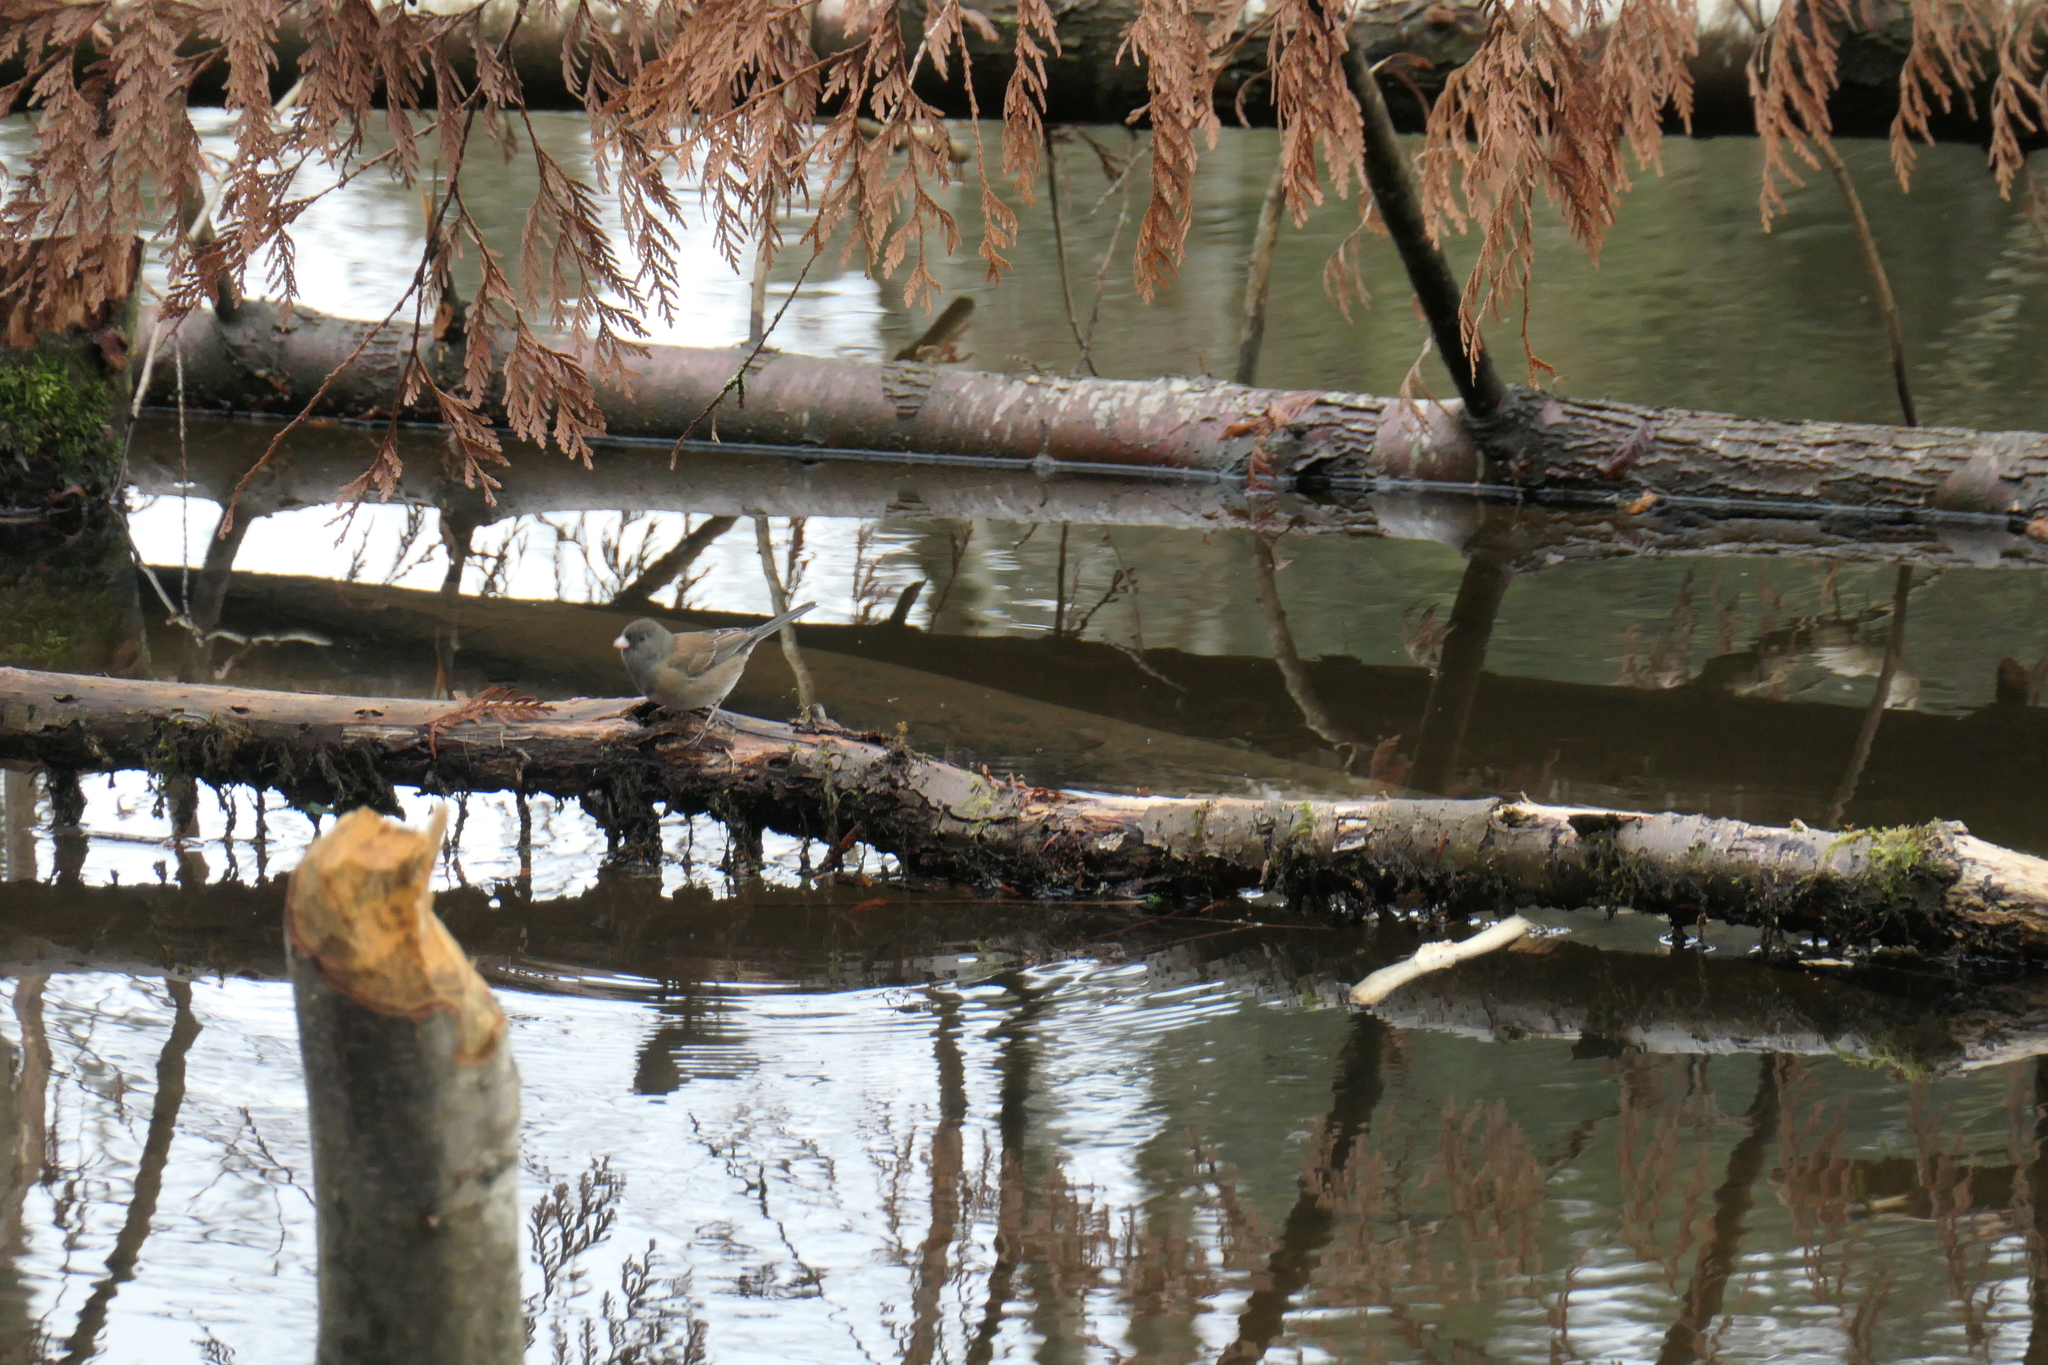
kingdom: Animalia
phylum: Chordata
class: Aves
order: Passeriformes
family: Passerellidae
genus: Junco
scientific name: Junco hyemalis
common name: Dark-eyed junco
